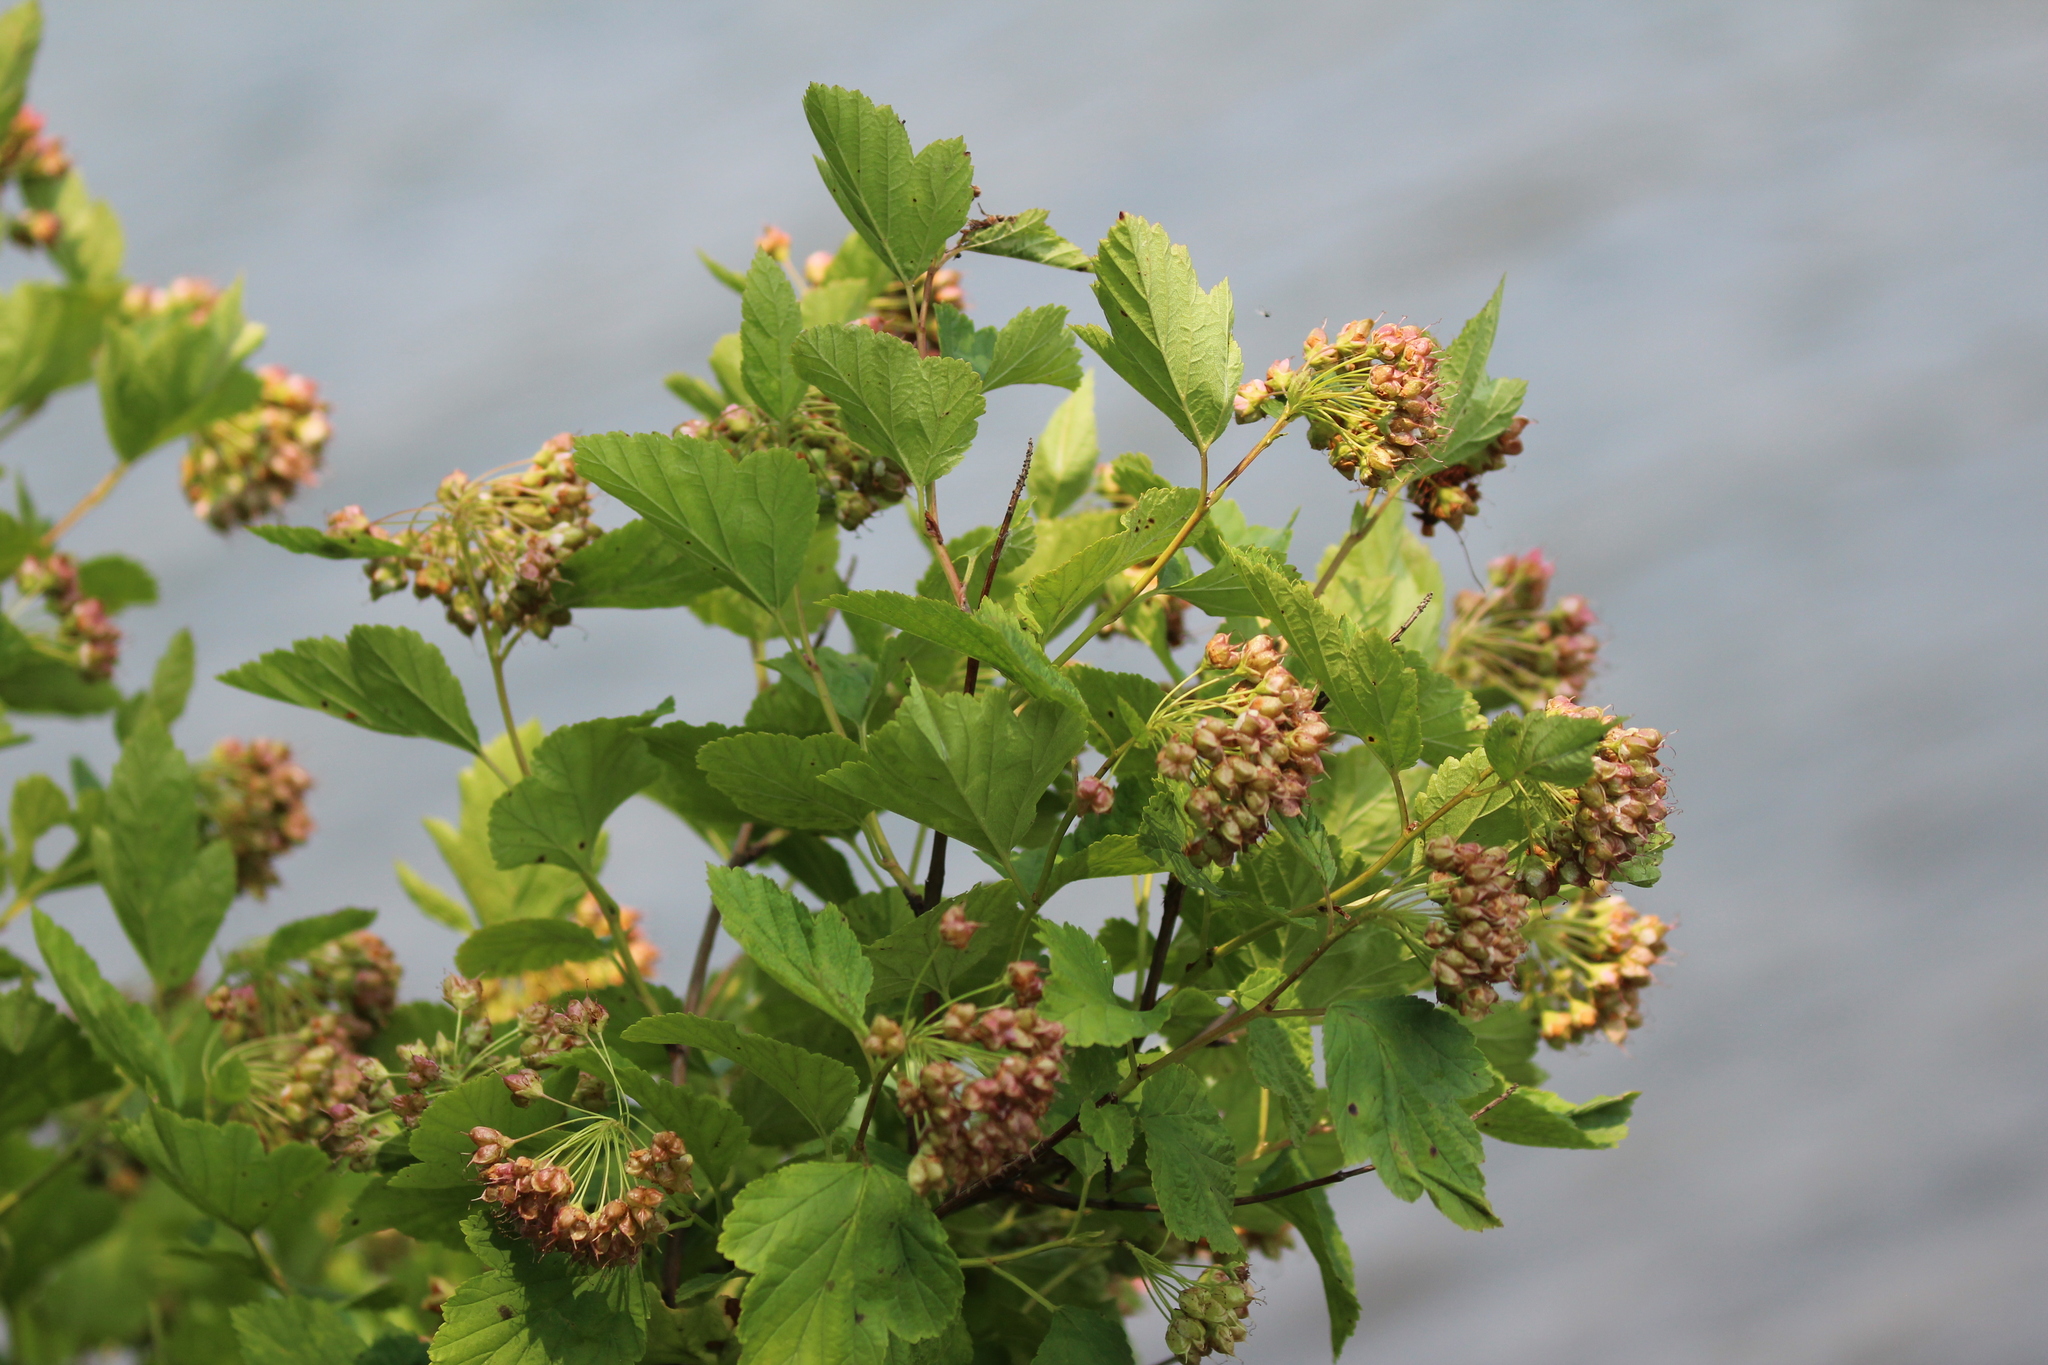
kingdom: Plantae
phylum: Tracheophyta
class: Magnoliopsida
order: Rosales
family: Rosaceae
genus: Physocarpus
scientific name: Physocarpus opulifolius
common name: Ninebark
